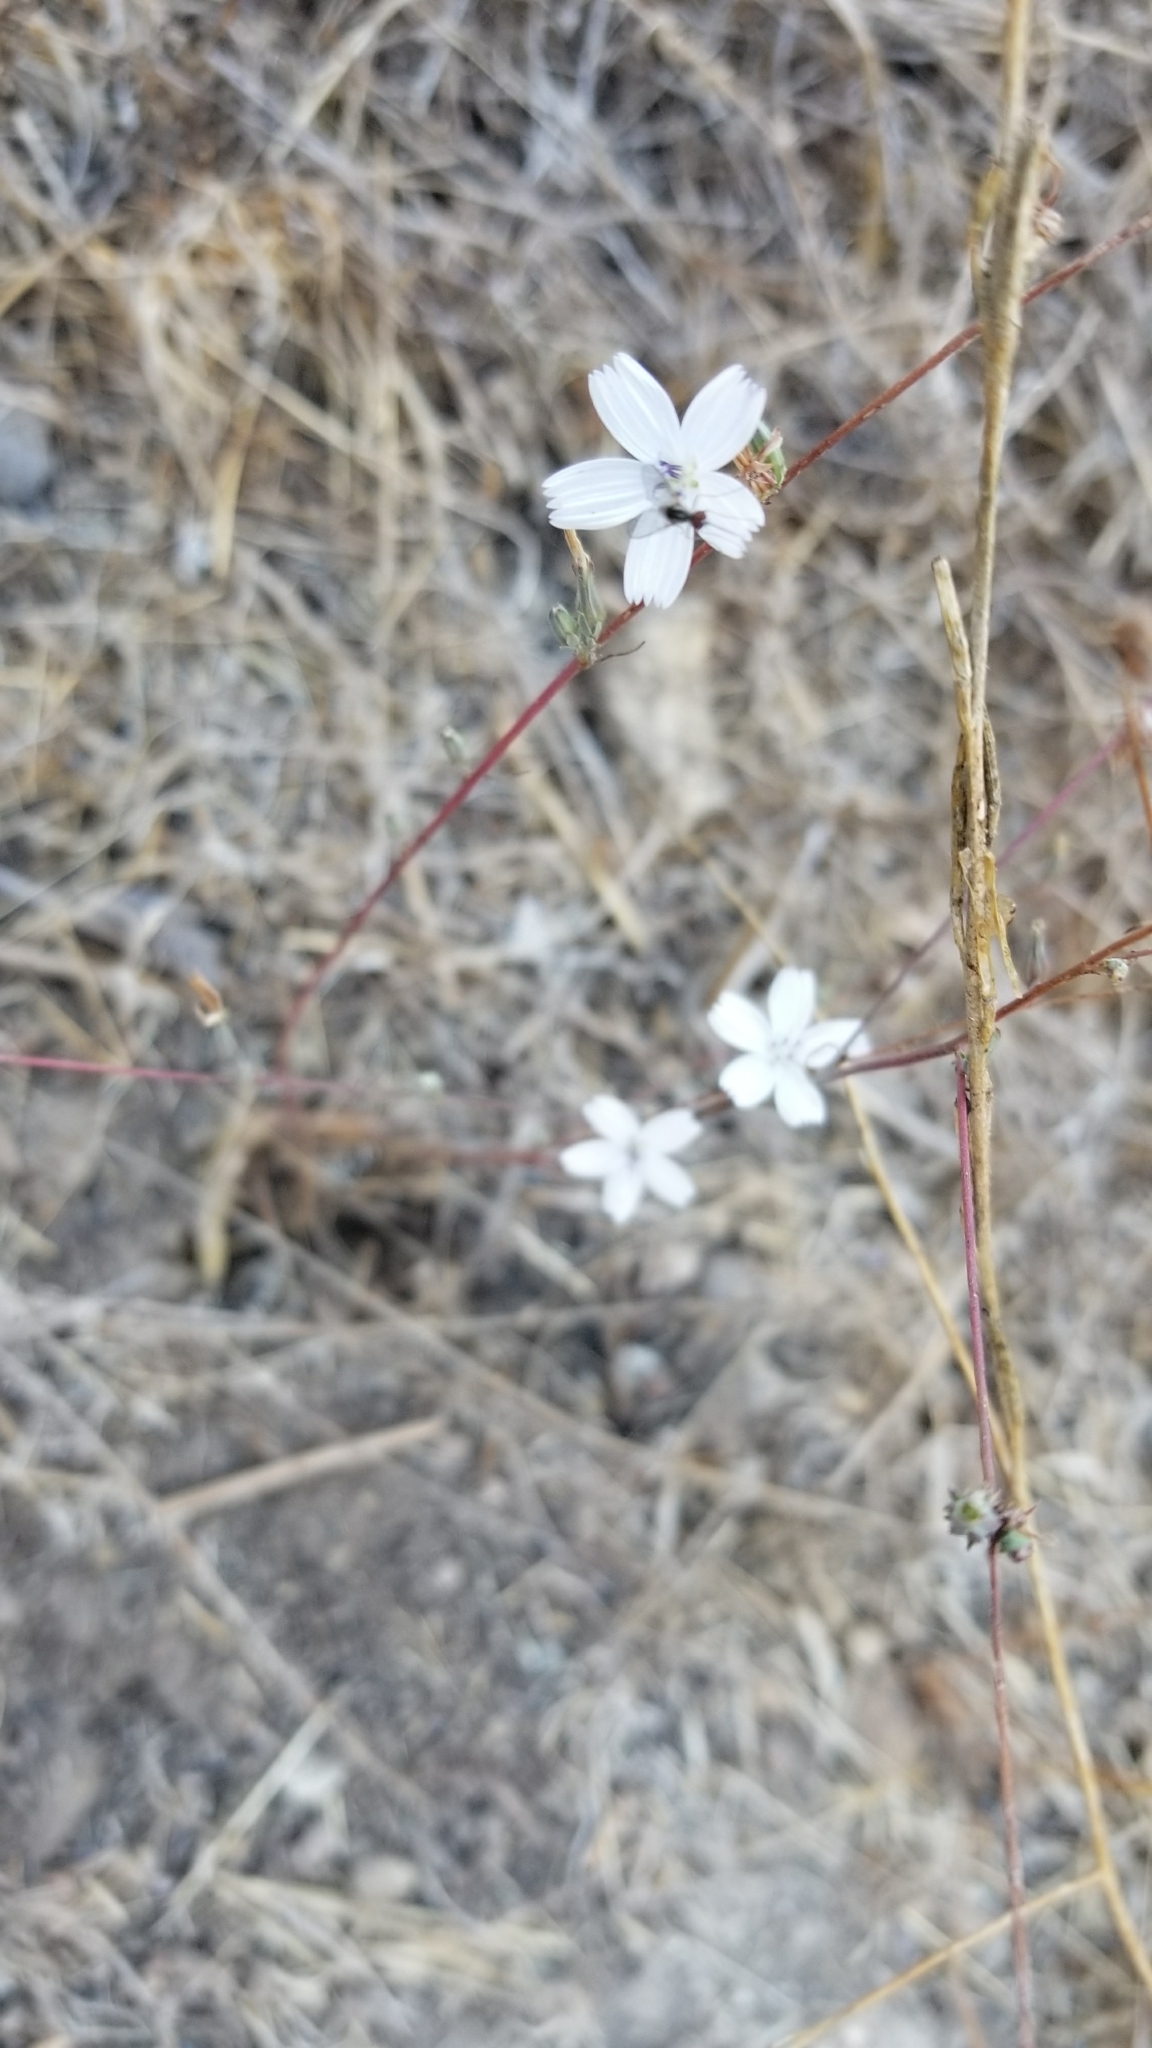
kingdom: Plantae
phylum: Tracheophyta
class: Magnoliopsida
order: Asterales
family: Asteraceae
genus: Stephanomeria
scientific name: Stephanomeria virgata
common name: Virgate wirelettuce
